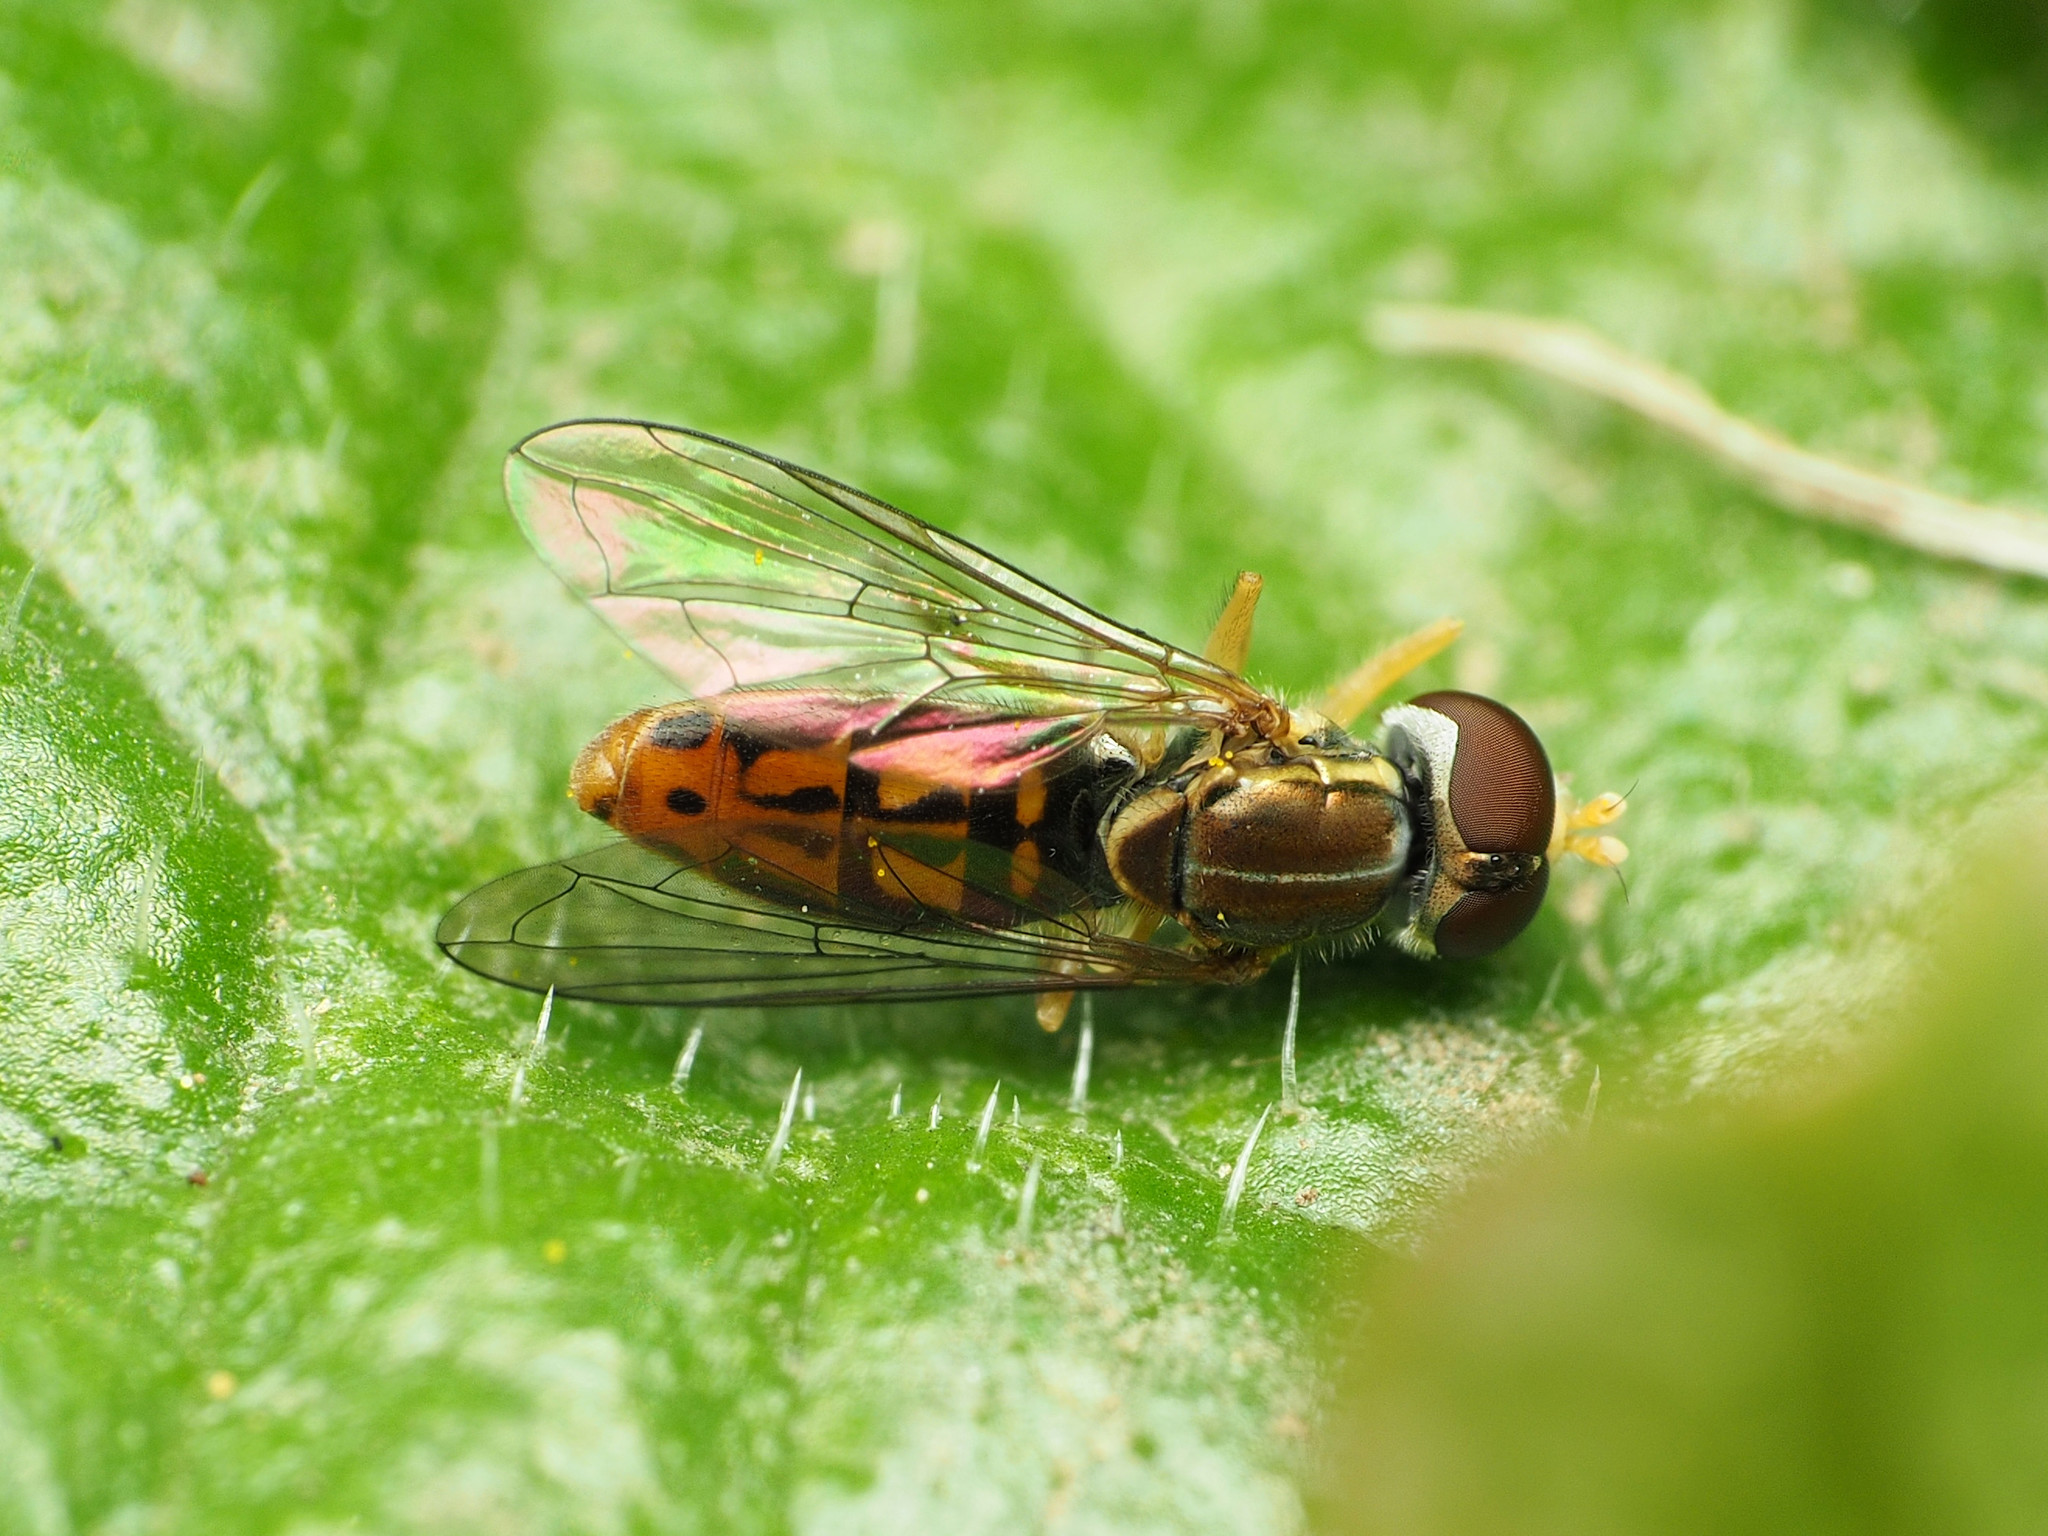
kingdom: Animalia
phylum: Arthropoda
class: Insecta
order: Diptera
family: Syrphidae
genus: Toxomerus
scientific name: Toxomerus marginatus
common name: Syrphid fly
